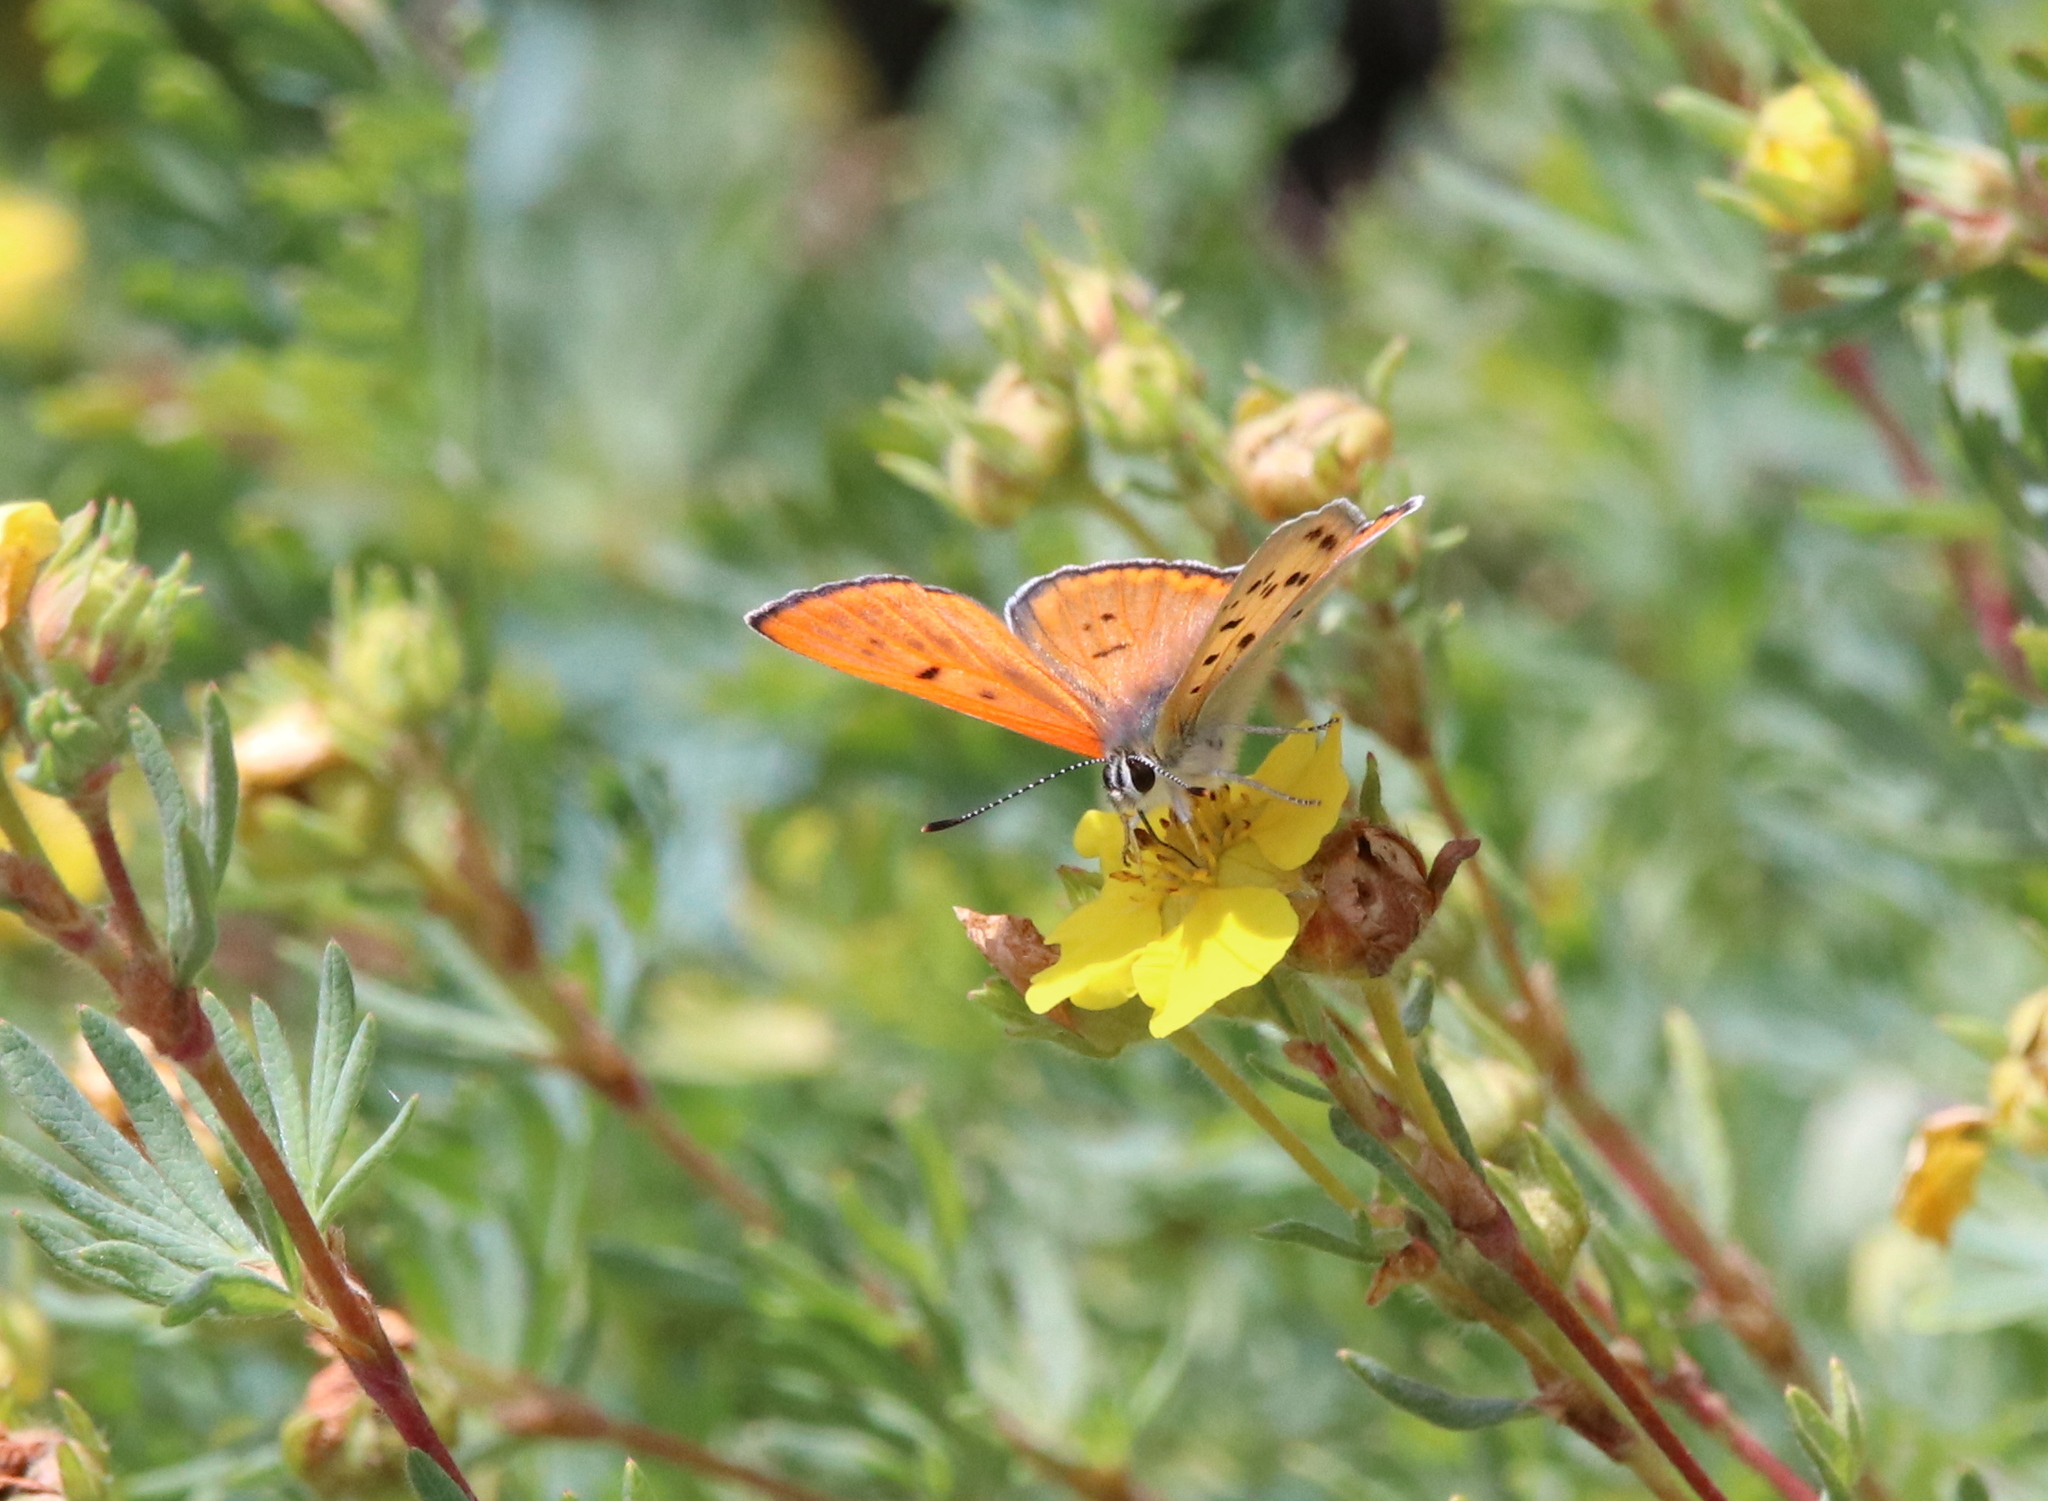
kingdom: Animalia
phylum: Arthropoda
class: Insecta
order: Lepidoptera
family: Lycaenidae
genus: Tharsalea
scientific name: Tharsalea rubidus
